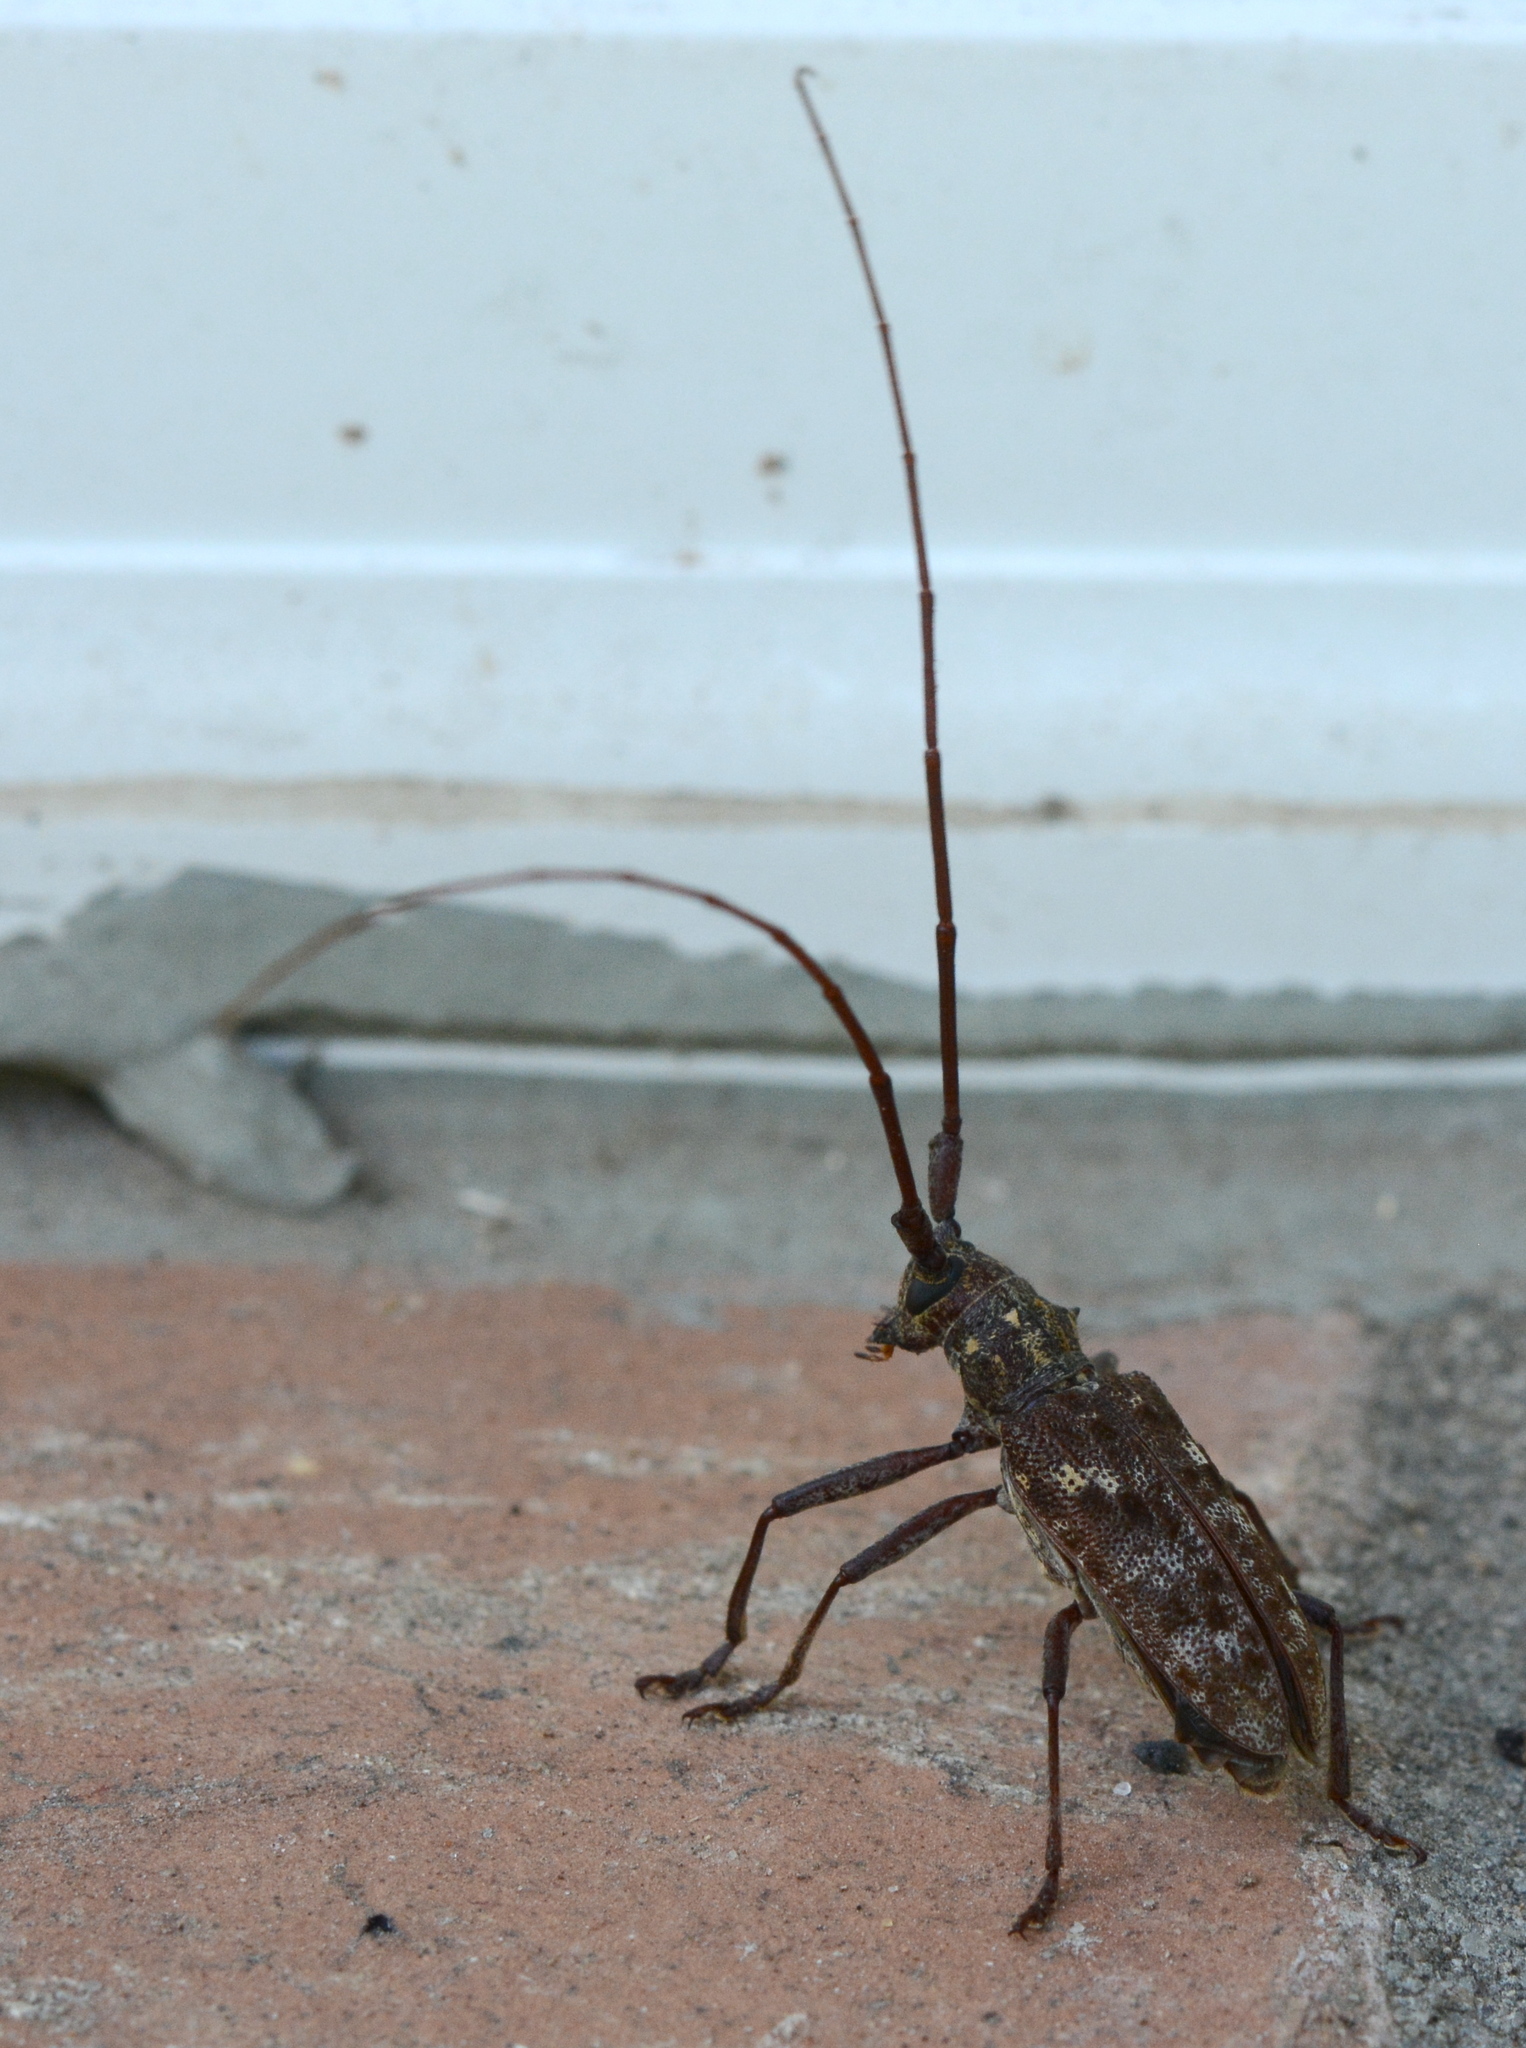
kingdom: Animalia
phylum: Arthropoda
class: Insecta
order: Coleoptera
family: Cerambycidae
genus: Monochamus
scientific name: Monochamus carolinensis
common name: Carolina pine sawyer
